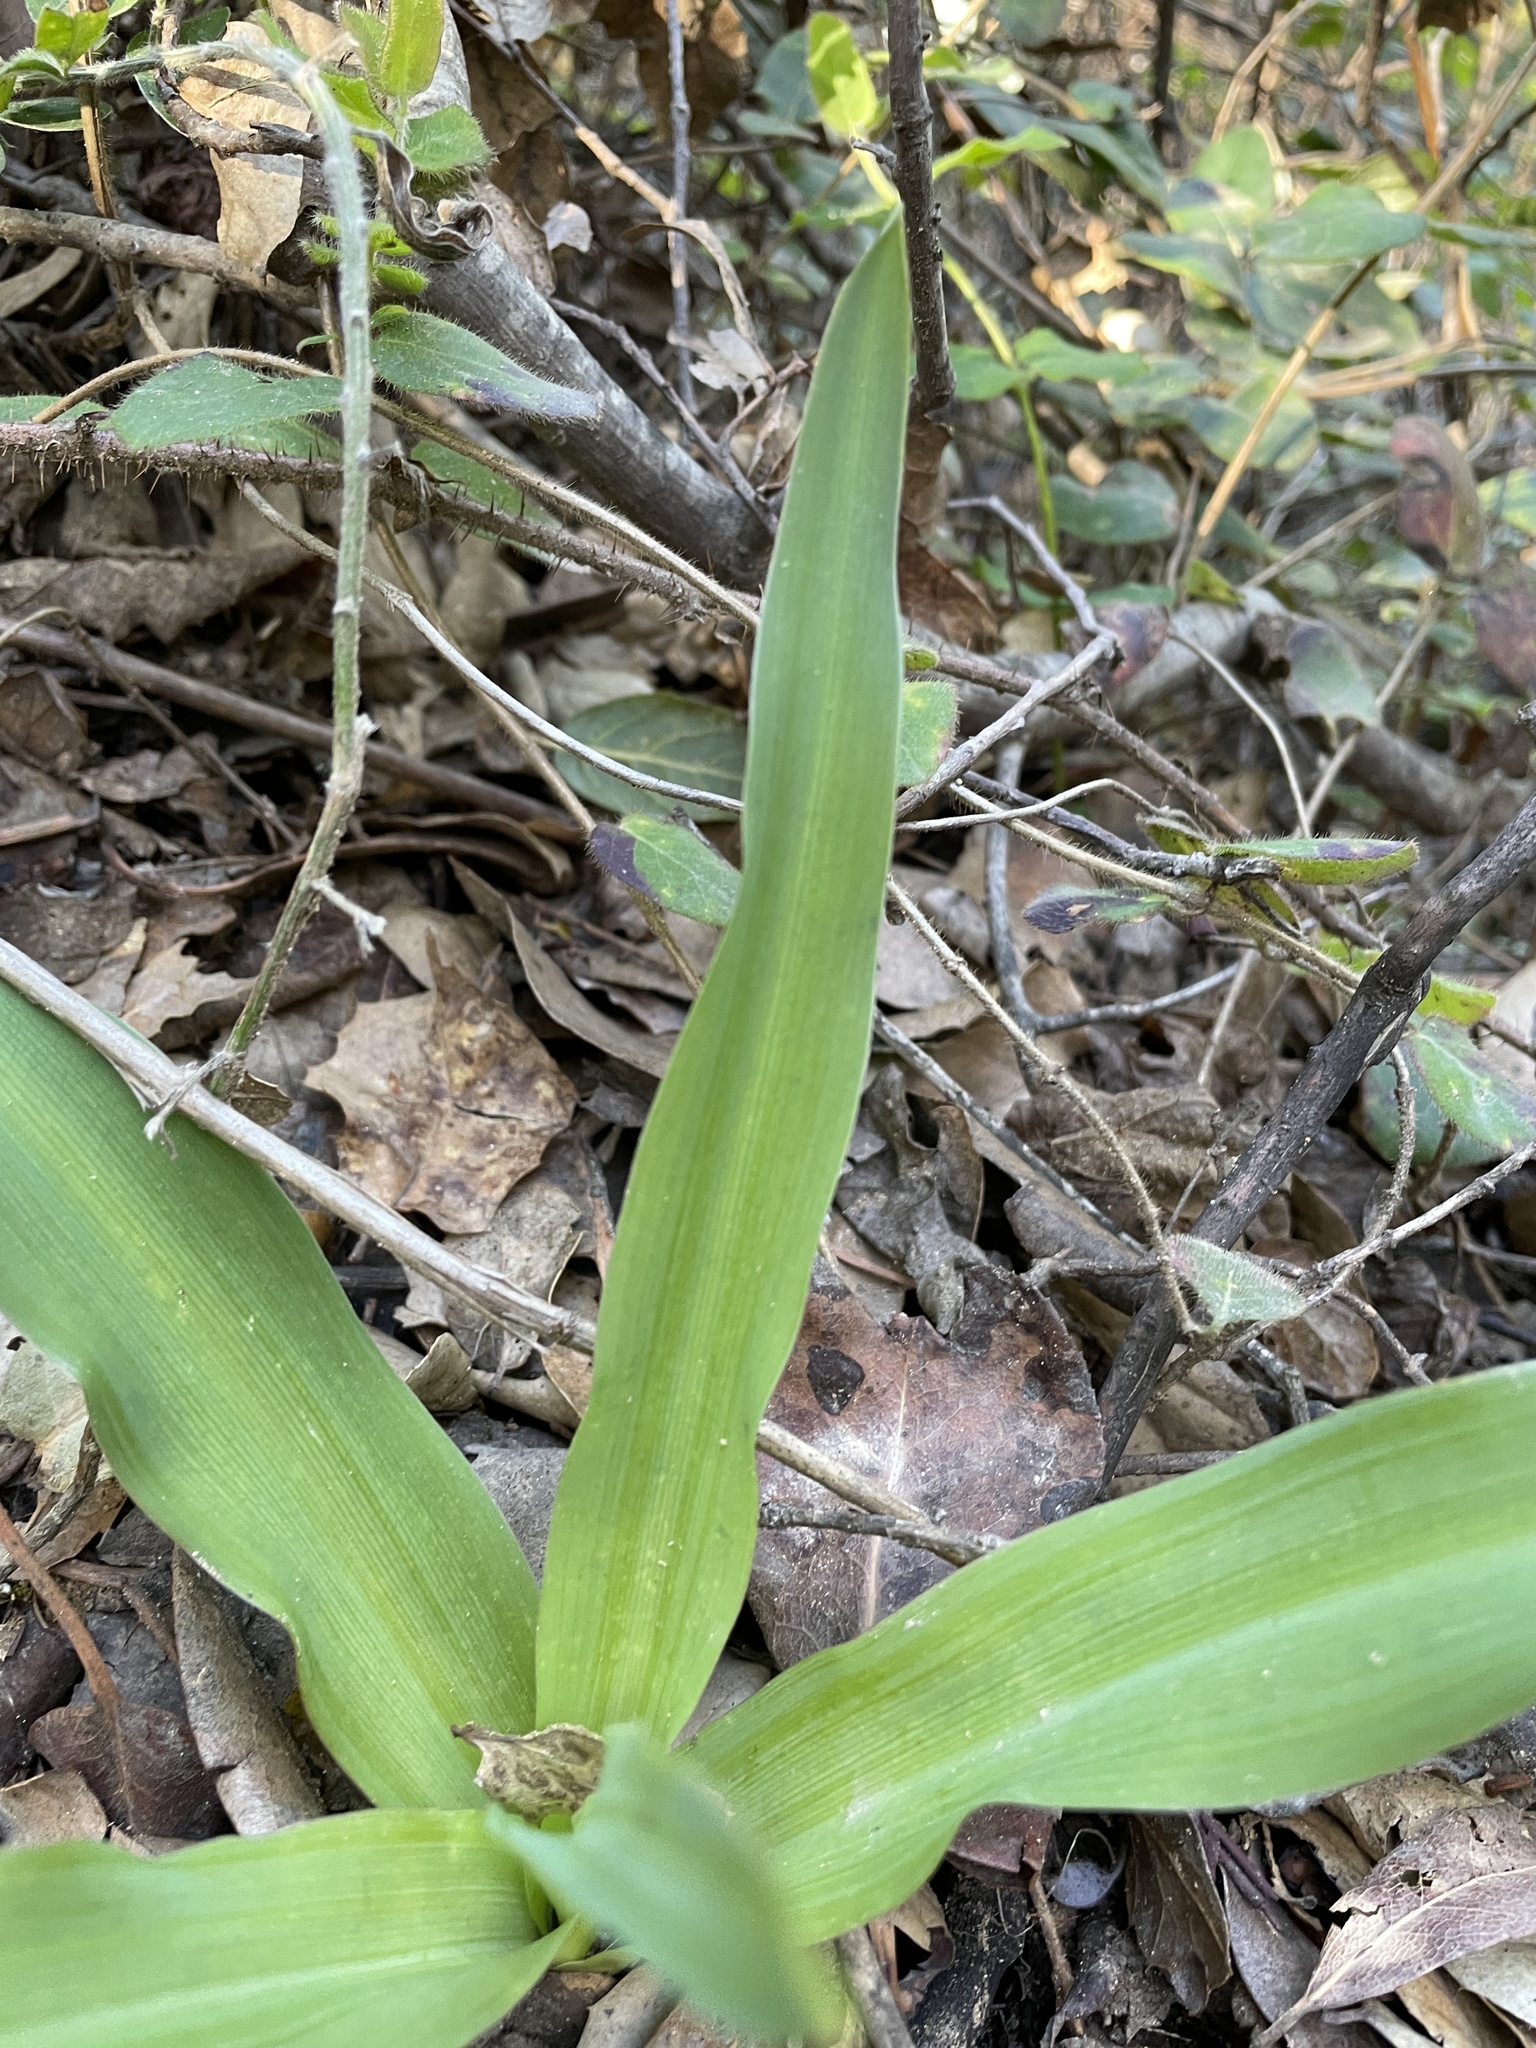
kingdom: Plantae
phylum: Tracheophyta
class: Liliopsida
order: Asparagales
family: Asparagaceae
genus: Chlorogalum
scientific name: Chlorogalum pomeridianum
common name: Amole
